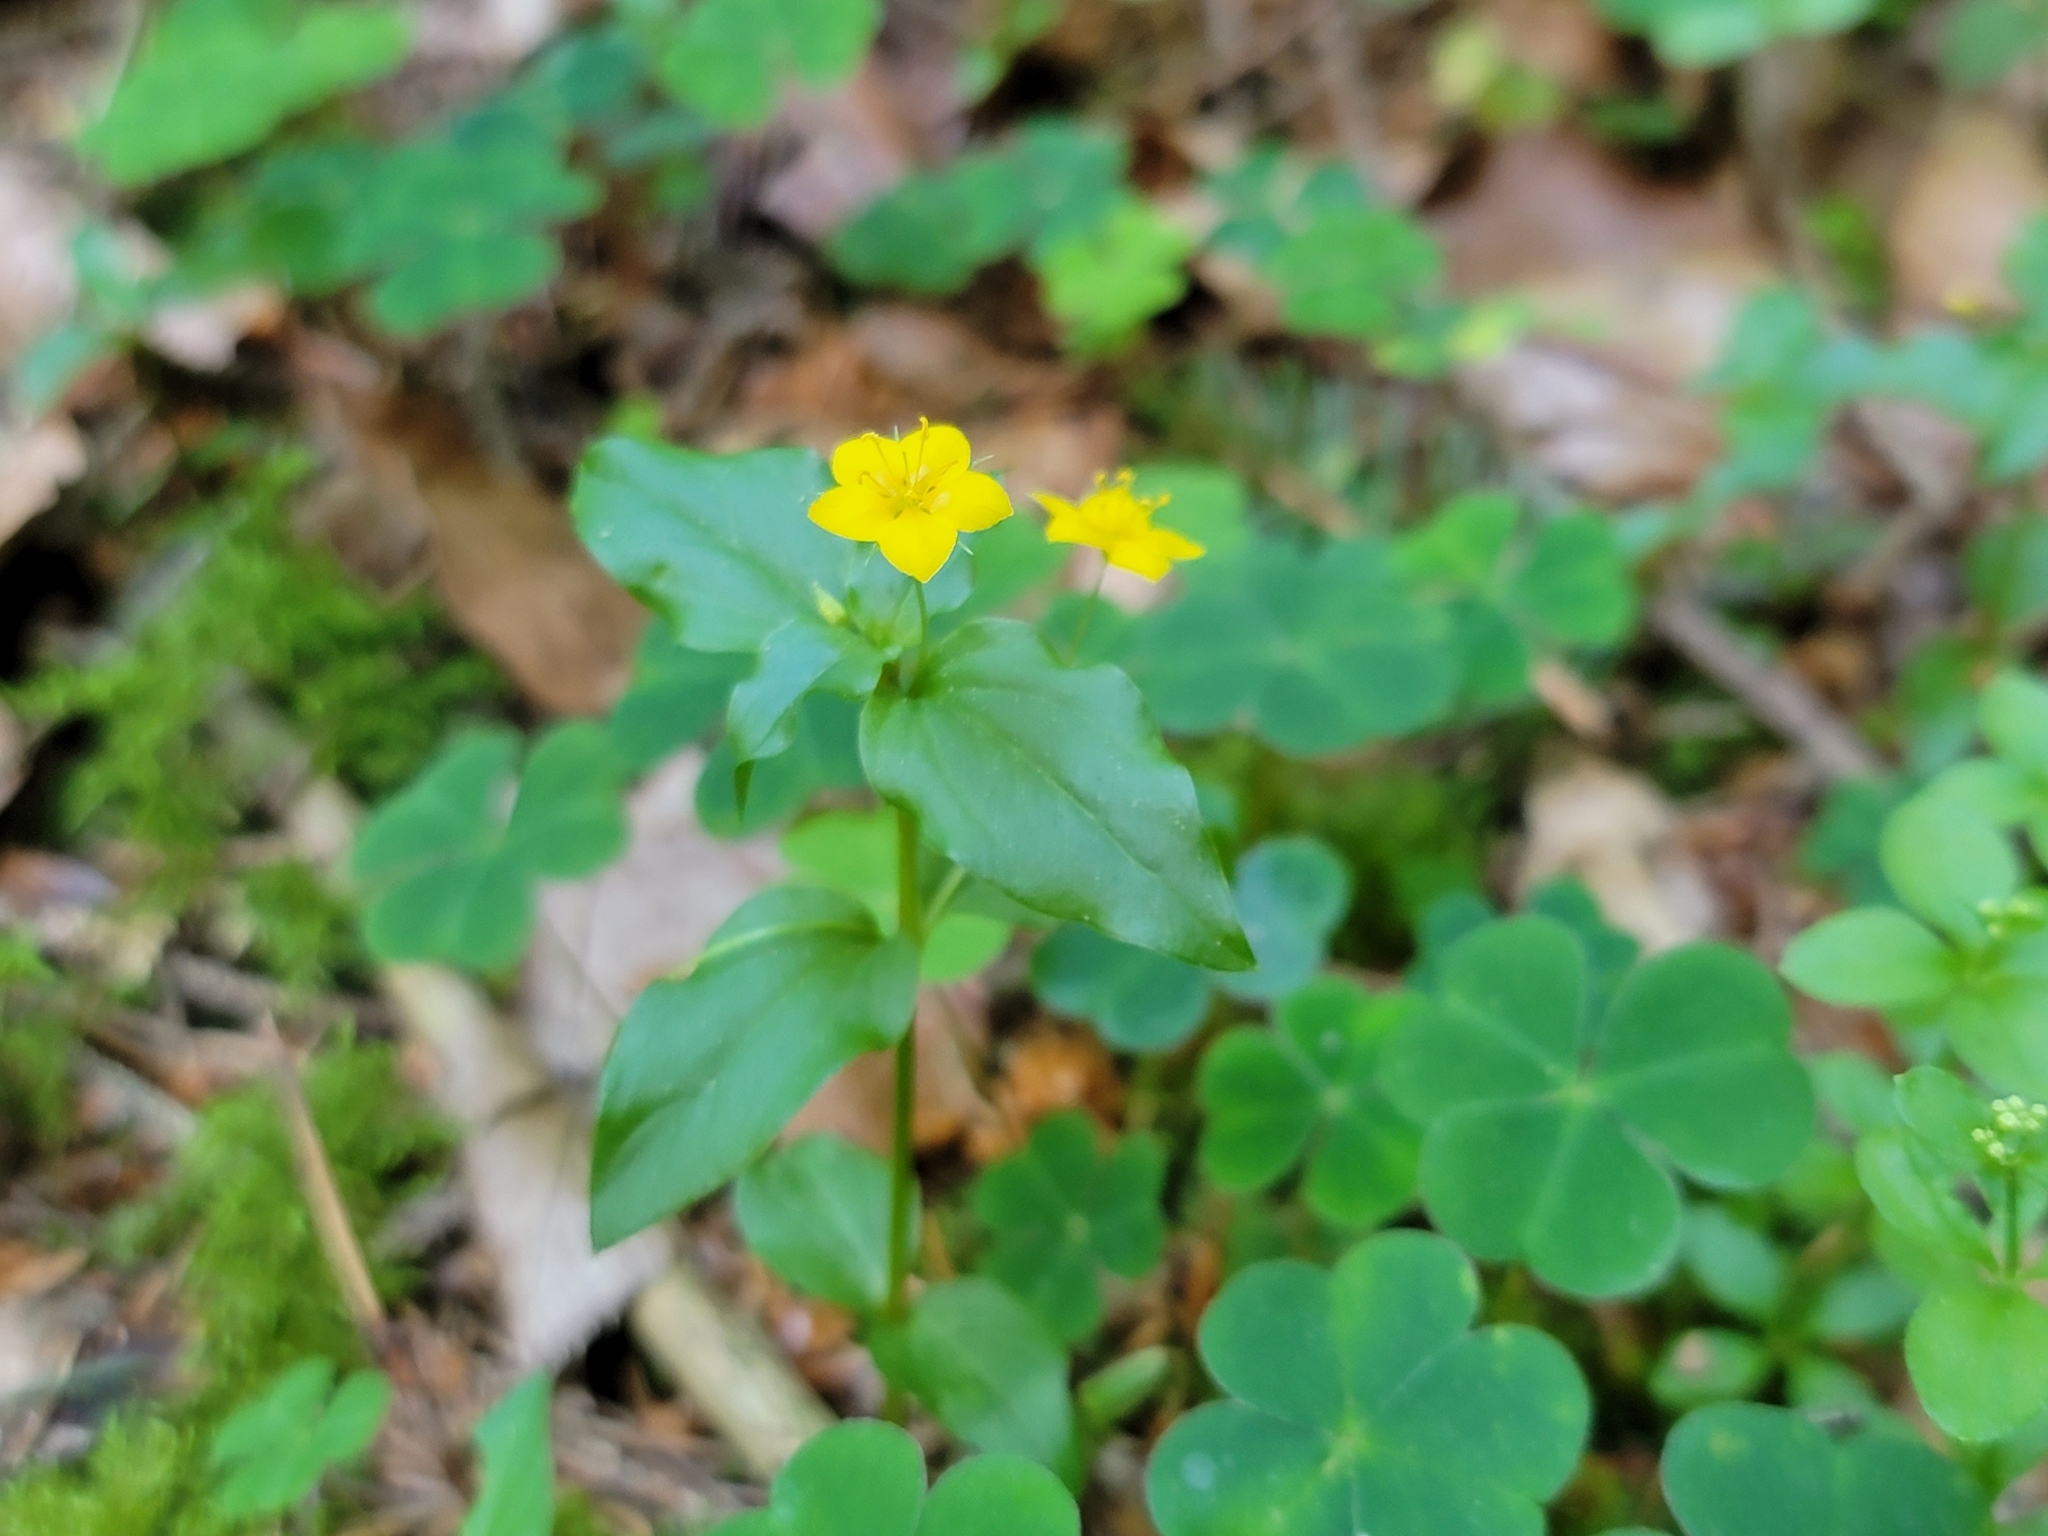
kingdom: Plantae
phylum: Tracheophyta
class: Magnoliopsida
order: Ericales
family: Primulaceae
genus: Lysimachia
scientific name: Lysimachia nemorum
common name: Yellow pimpernel
